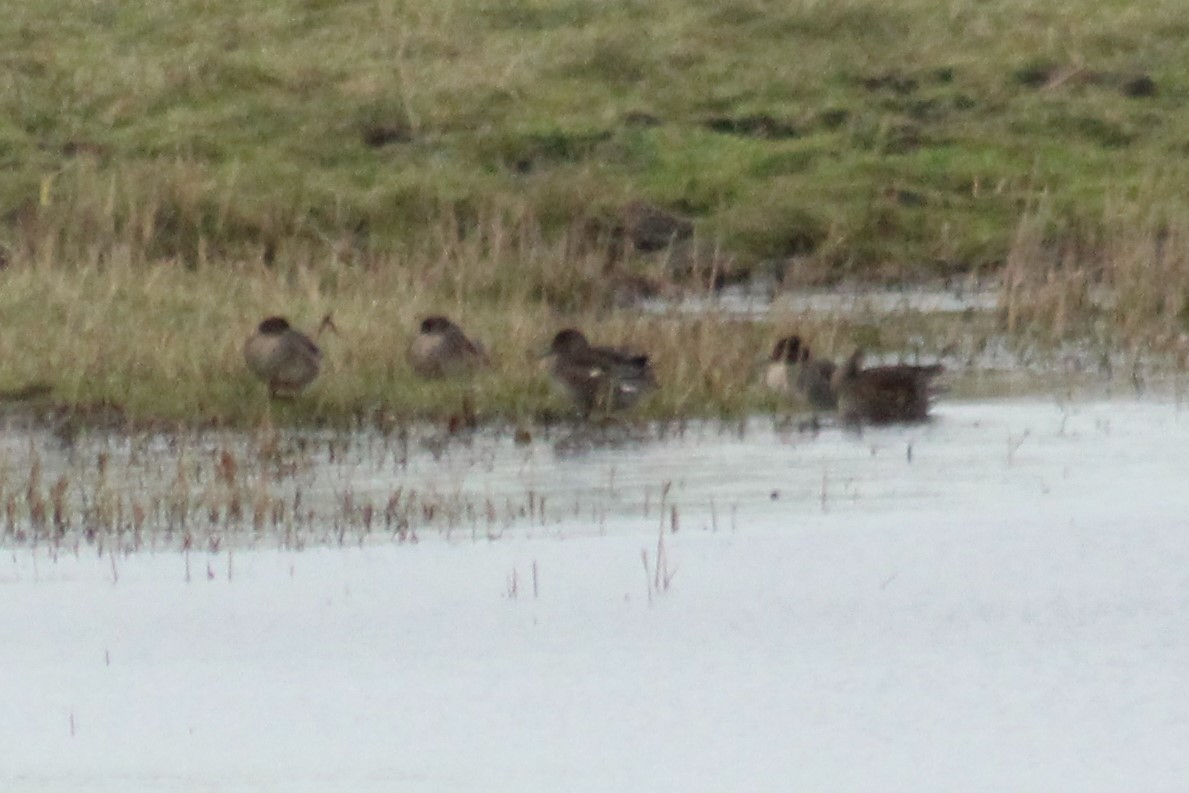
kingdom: Animalia
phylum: Chordata
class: Aves
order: Anseriformes
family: Anatidae
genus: Anas
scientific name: Anas crecca
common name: Eurasian teal
